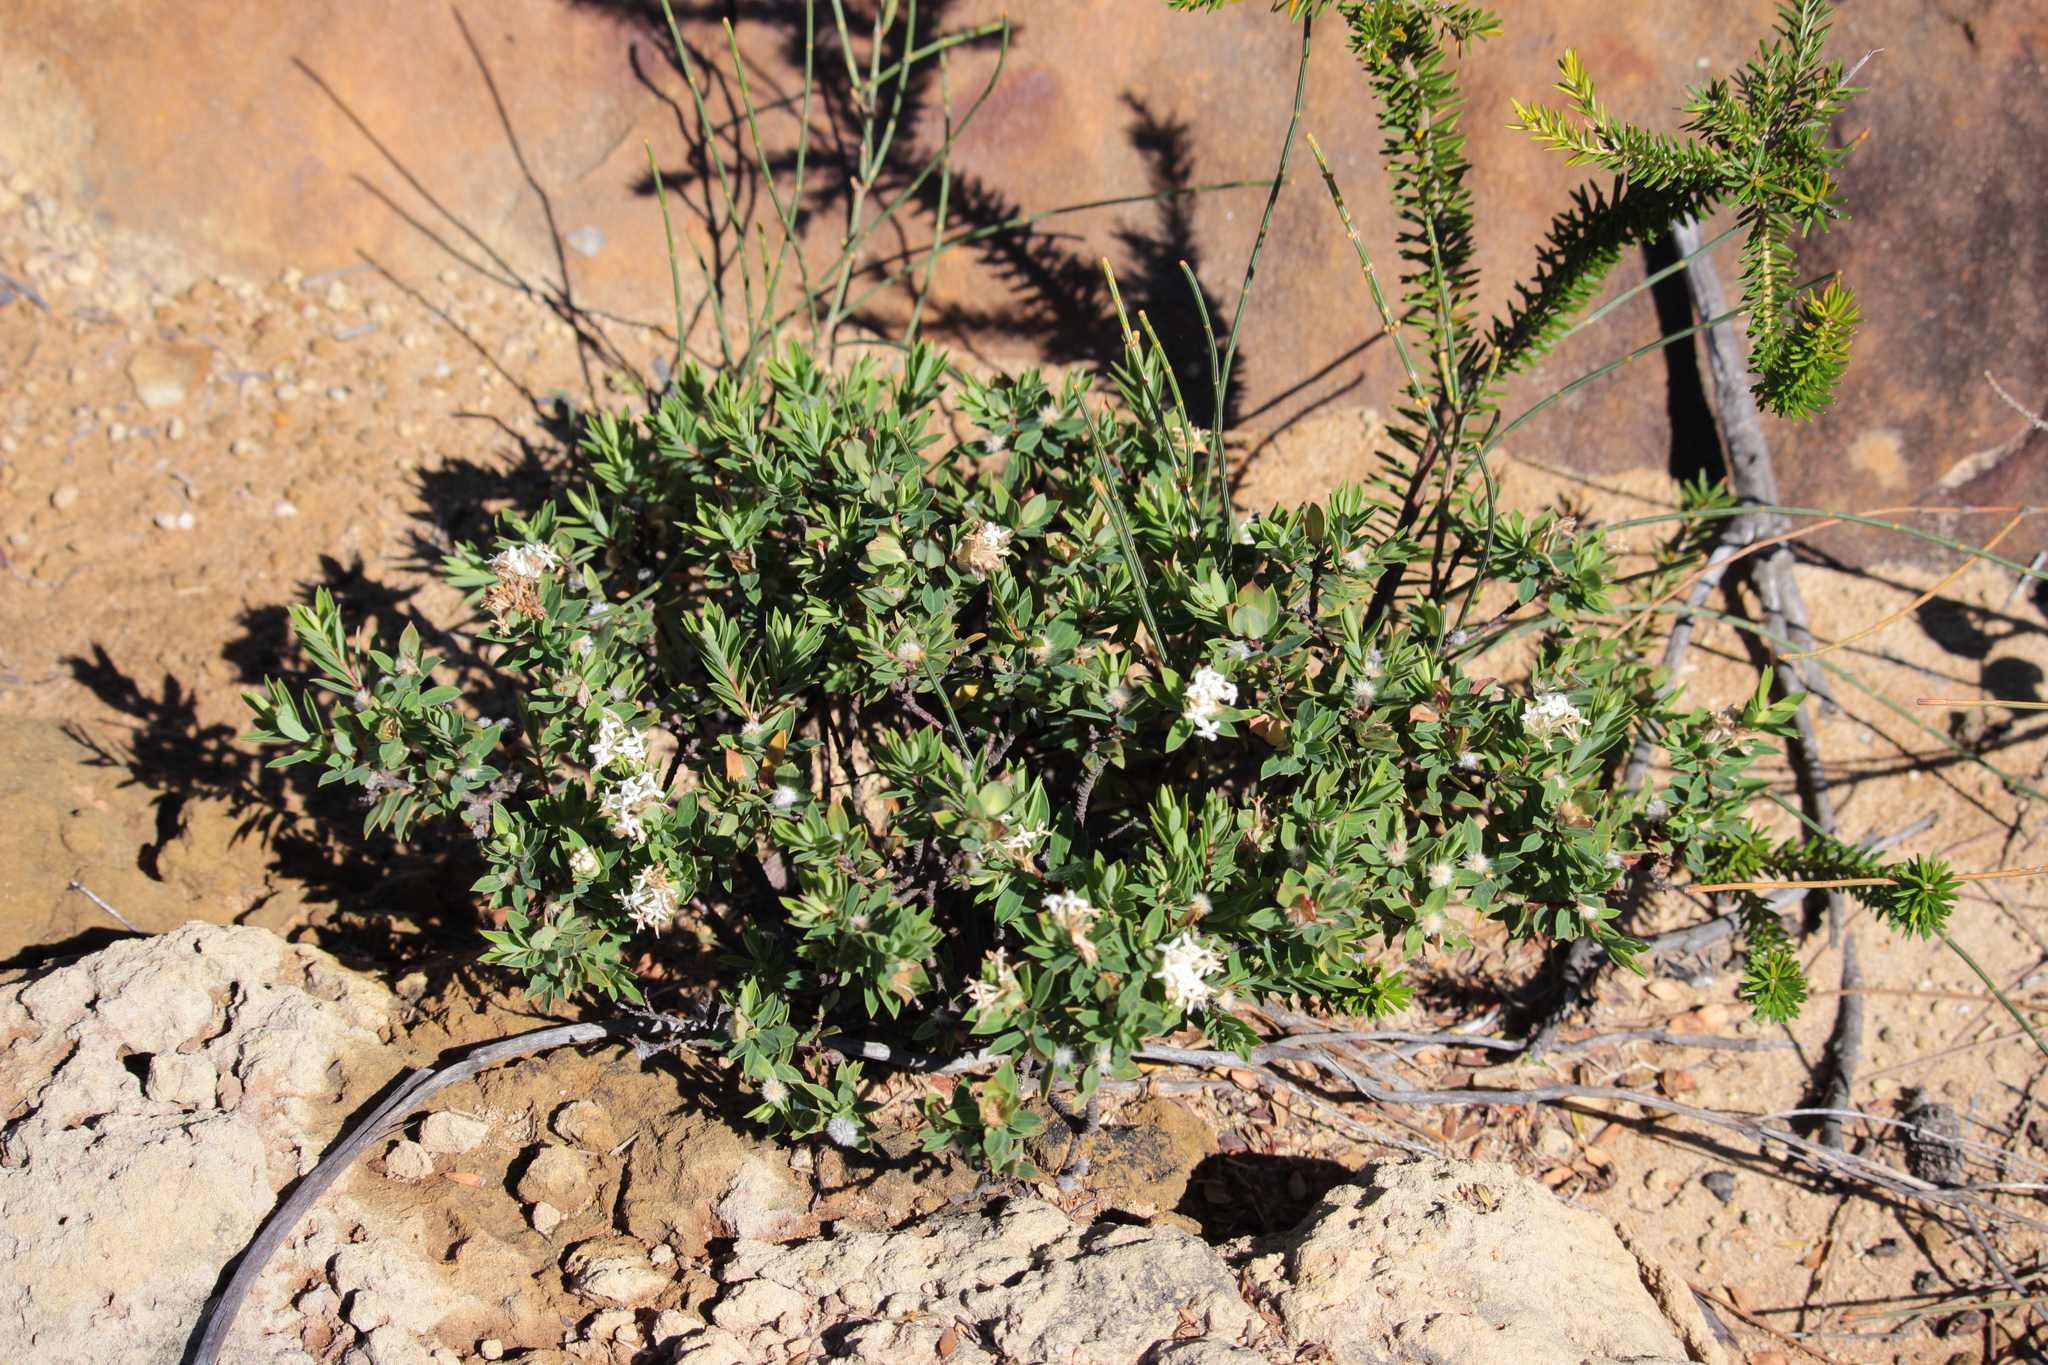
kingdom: Plantae
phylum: Tracheophyta
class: Magnoliopsida
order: Malvales
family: Thymelaeaceae
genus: Pimelea
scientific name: Pimelea linifolia
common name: Queen-of-the-bush
